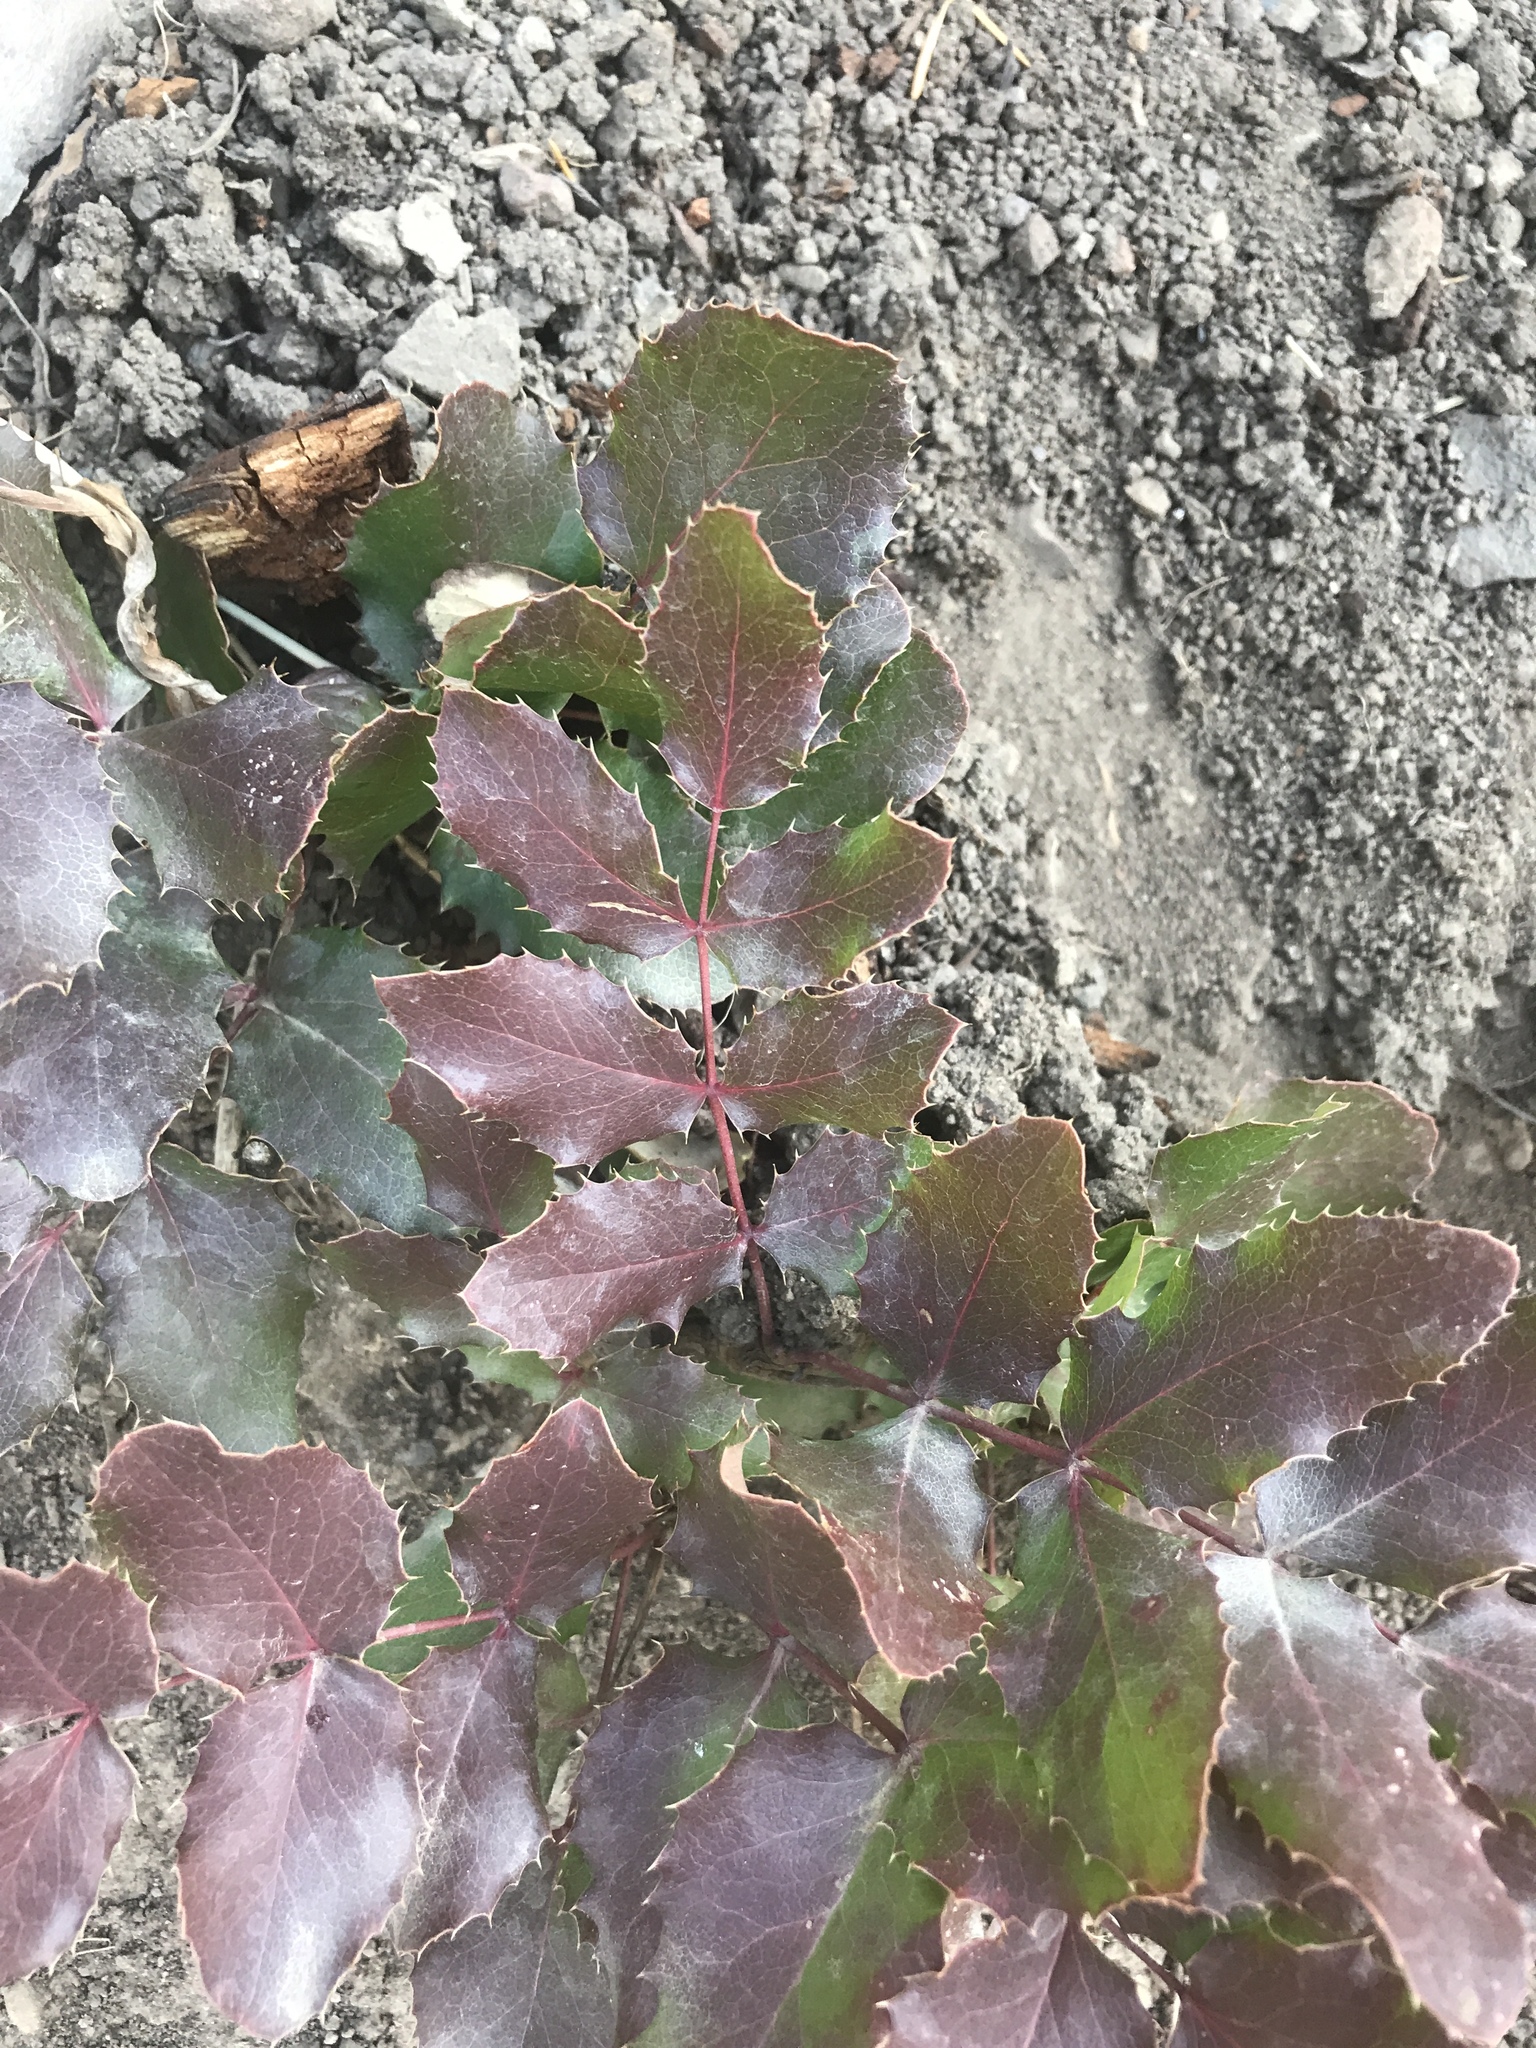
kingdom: Plantae
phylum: Tracheophyta
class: Magnoliopsida
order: Ranunculales
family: Berberidaceae
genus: Mahonia
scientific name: Mahonia repens
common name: Creeping oregon-grape
